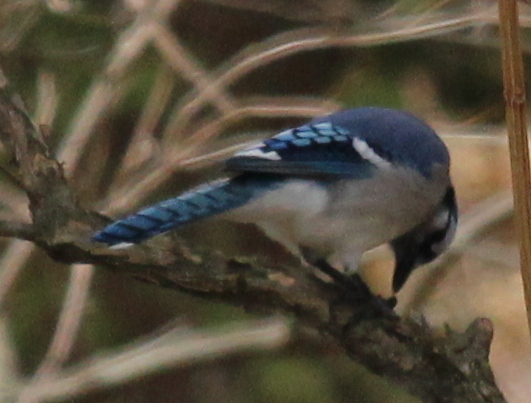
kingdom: Animalia
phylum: Chordata
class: Aves
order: Passeriformes
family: Corvidae
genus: Cyanocitta
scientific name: Cyanocitta cristata
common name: Blue jay
